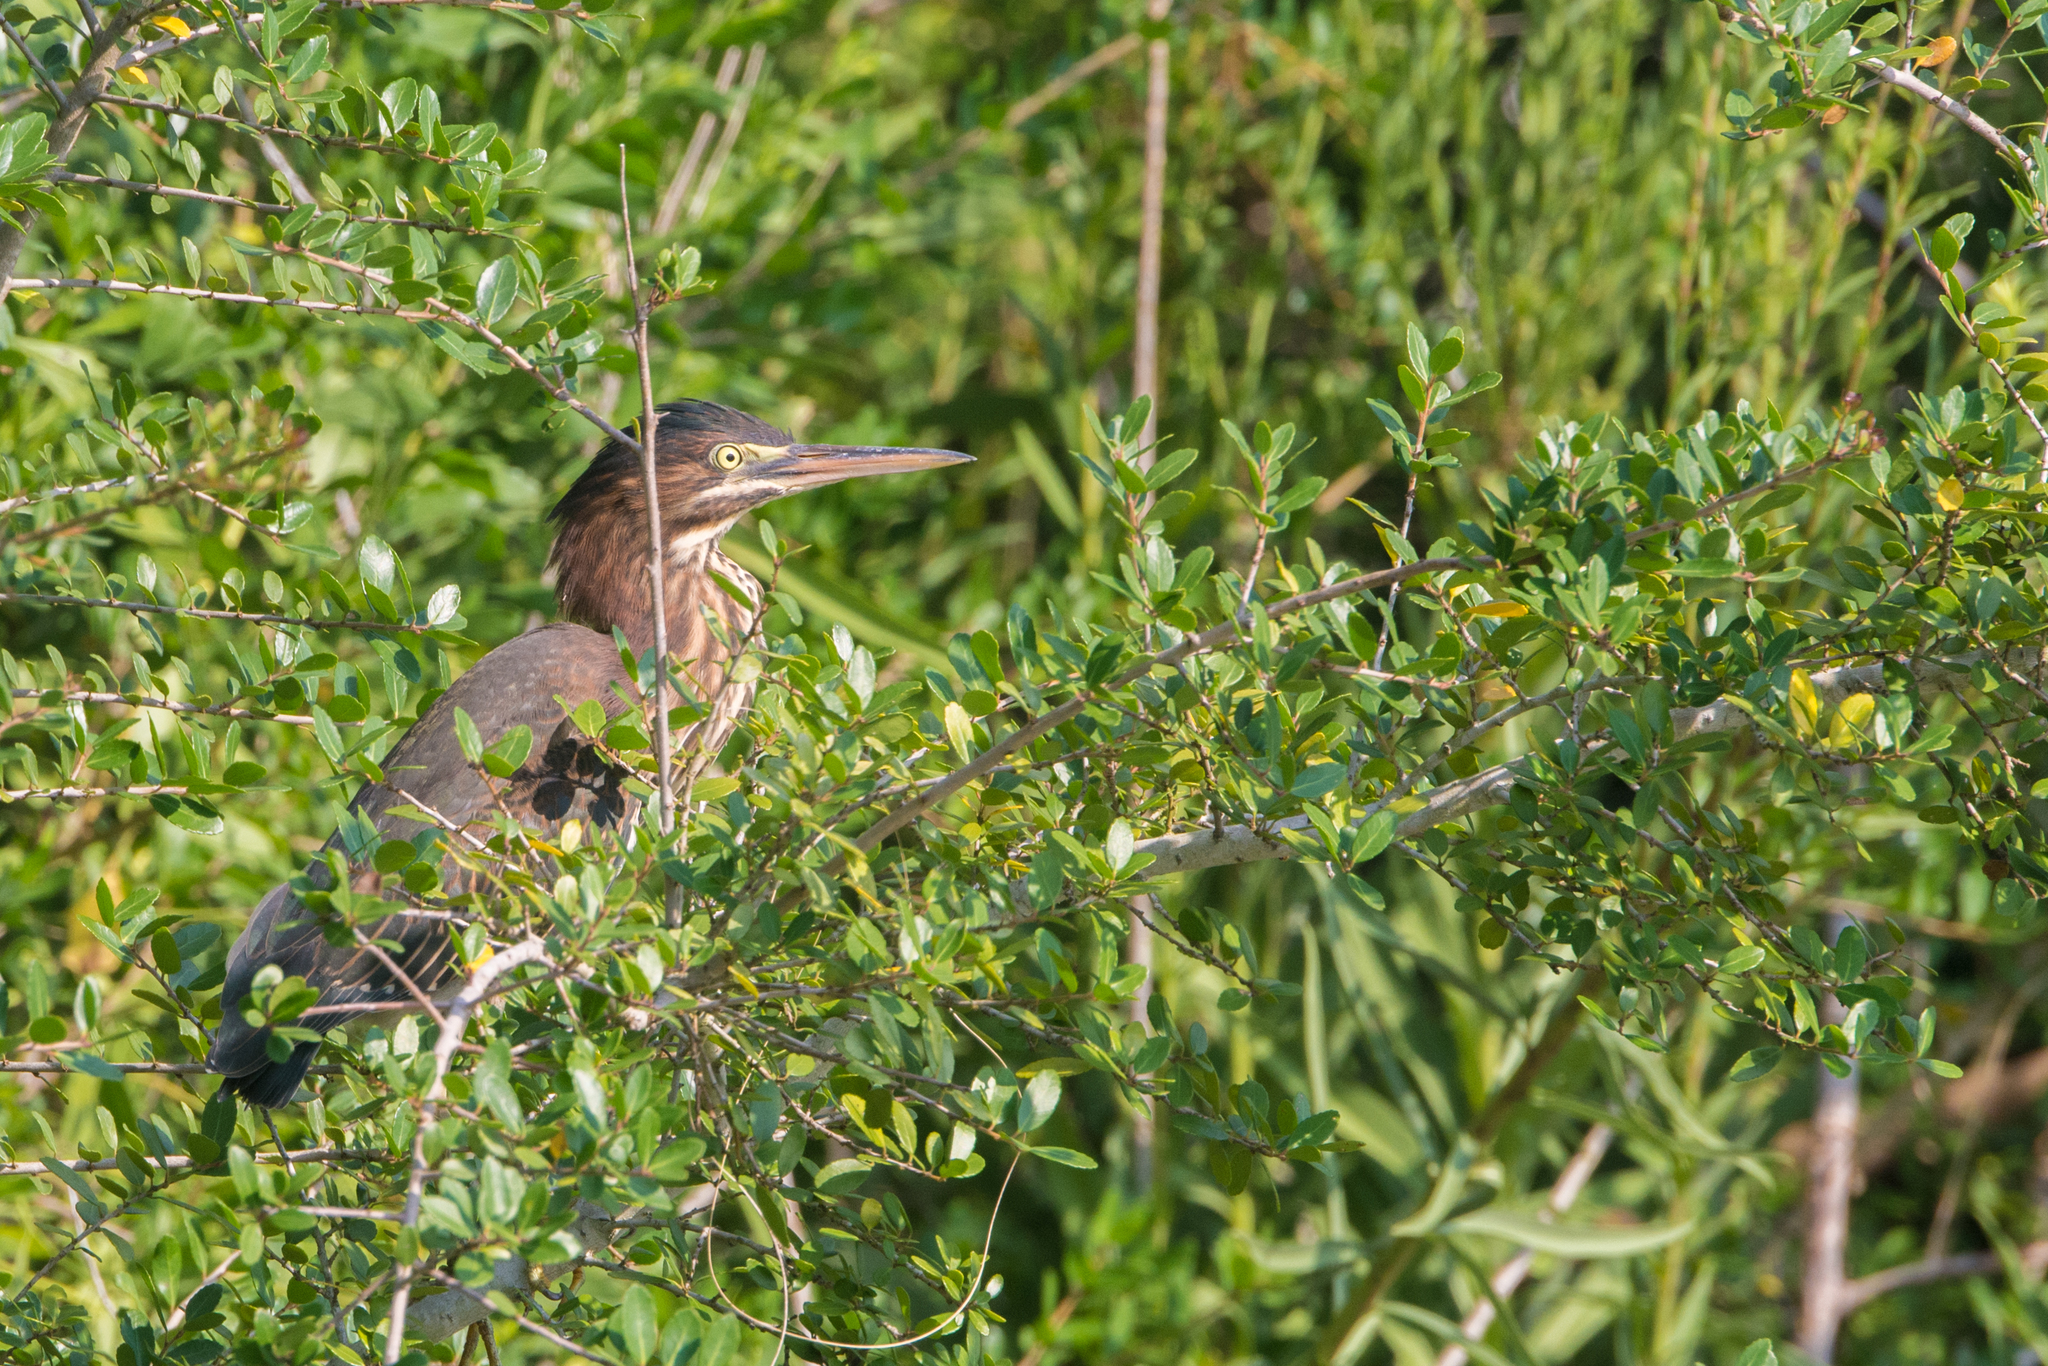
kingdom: Animalia
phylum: Chordata
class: Aves
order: Pelecaniformes
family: Ardeidae
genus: Butorides
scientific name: Butorides virescens
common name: Green heron
